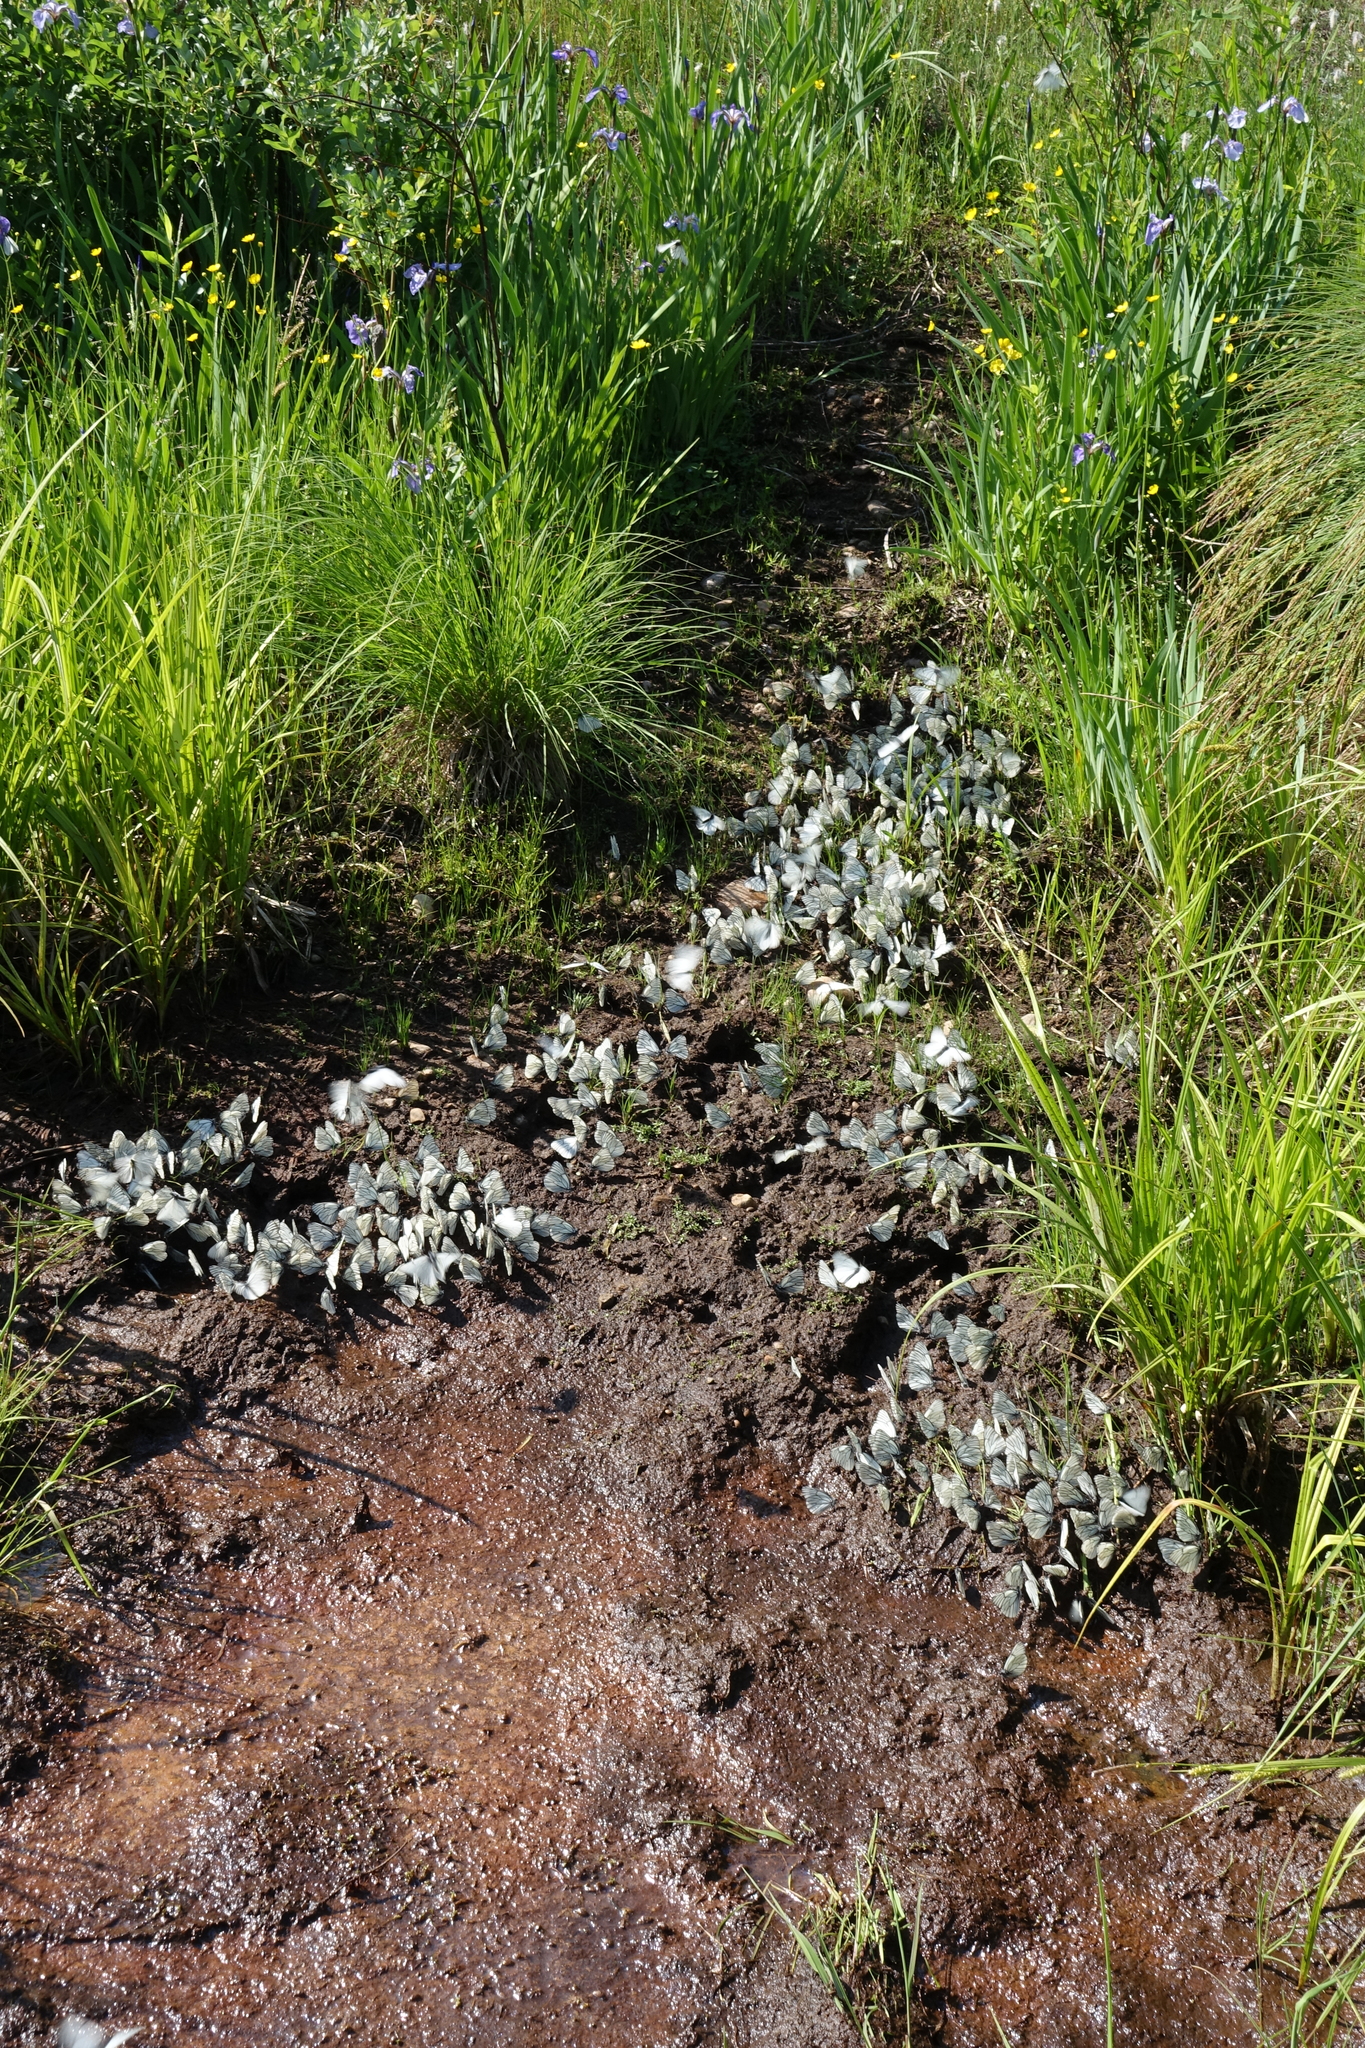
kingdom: Animalia
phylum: Arthropoda
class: Insecta
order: Lepidoptera
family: Pieridae
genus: Aporia
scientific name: Aporia crataegi
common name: Black-veined white
